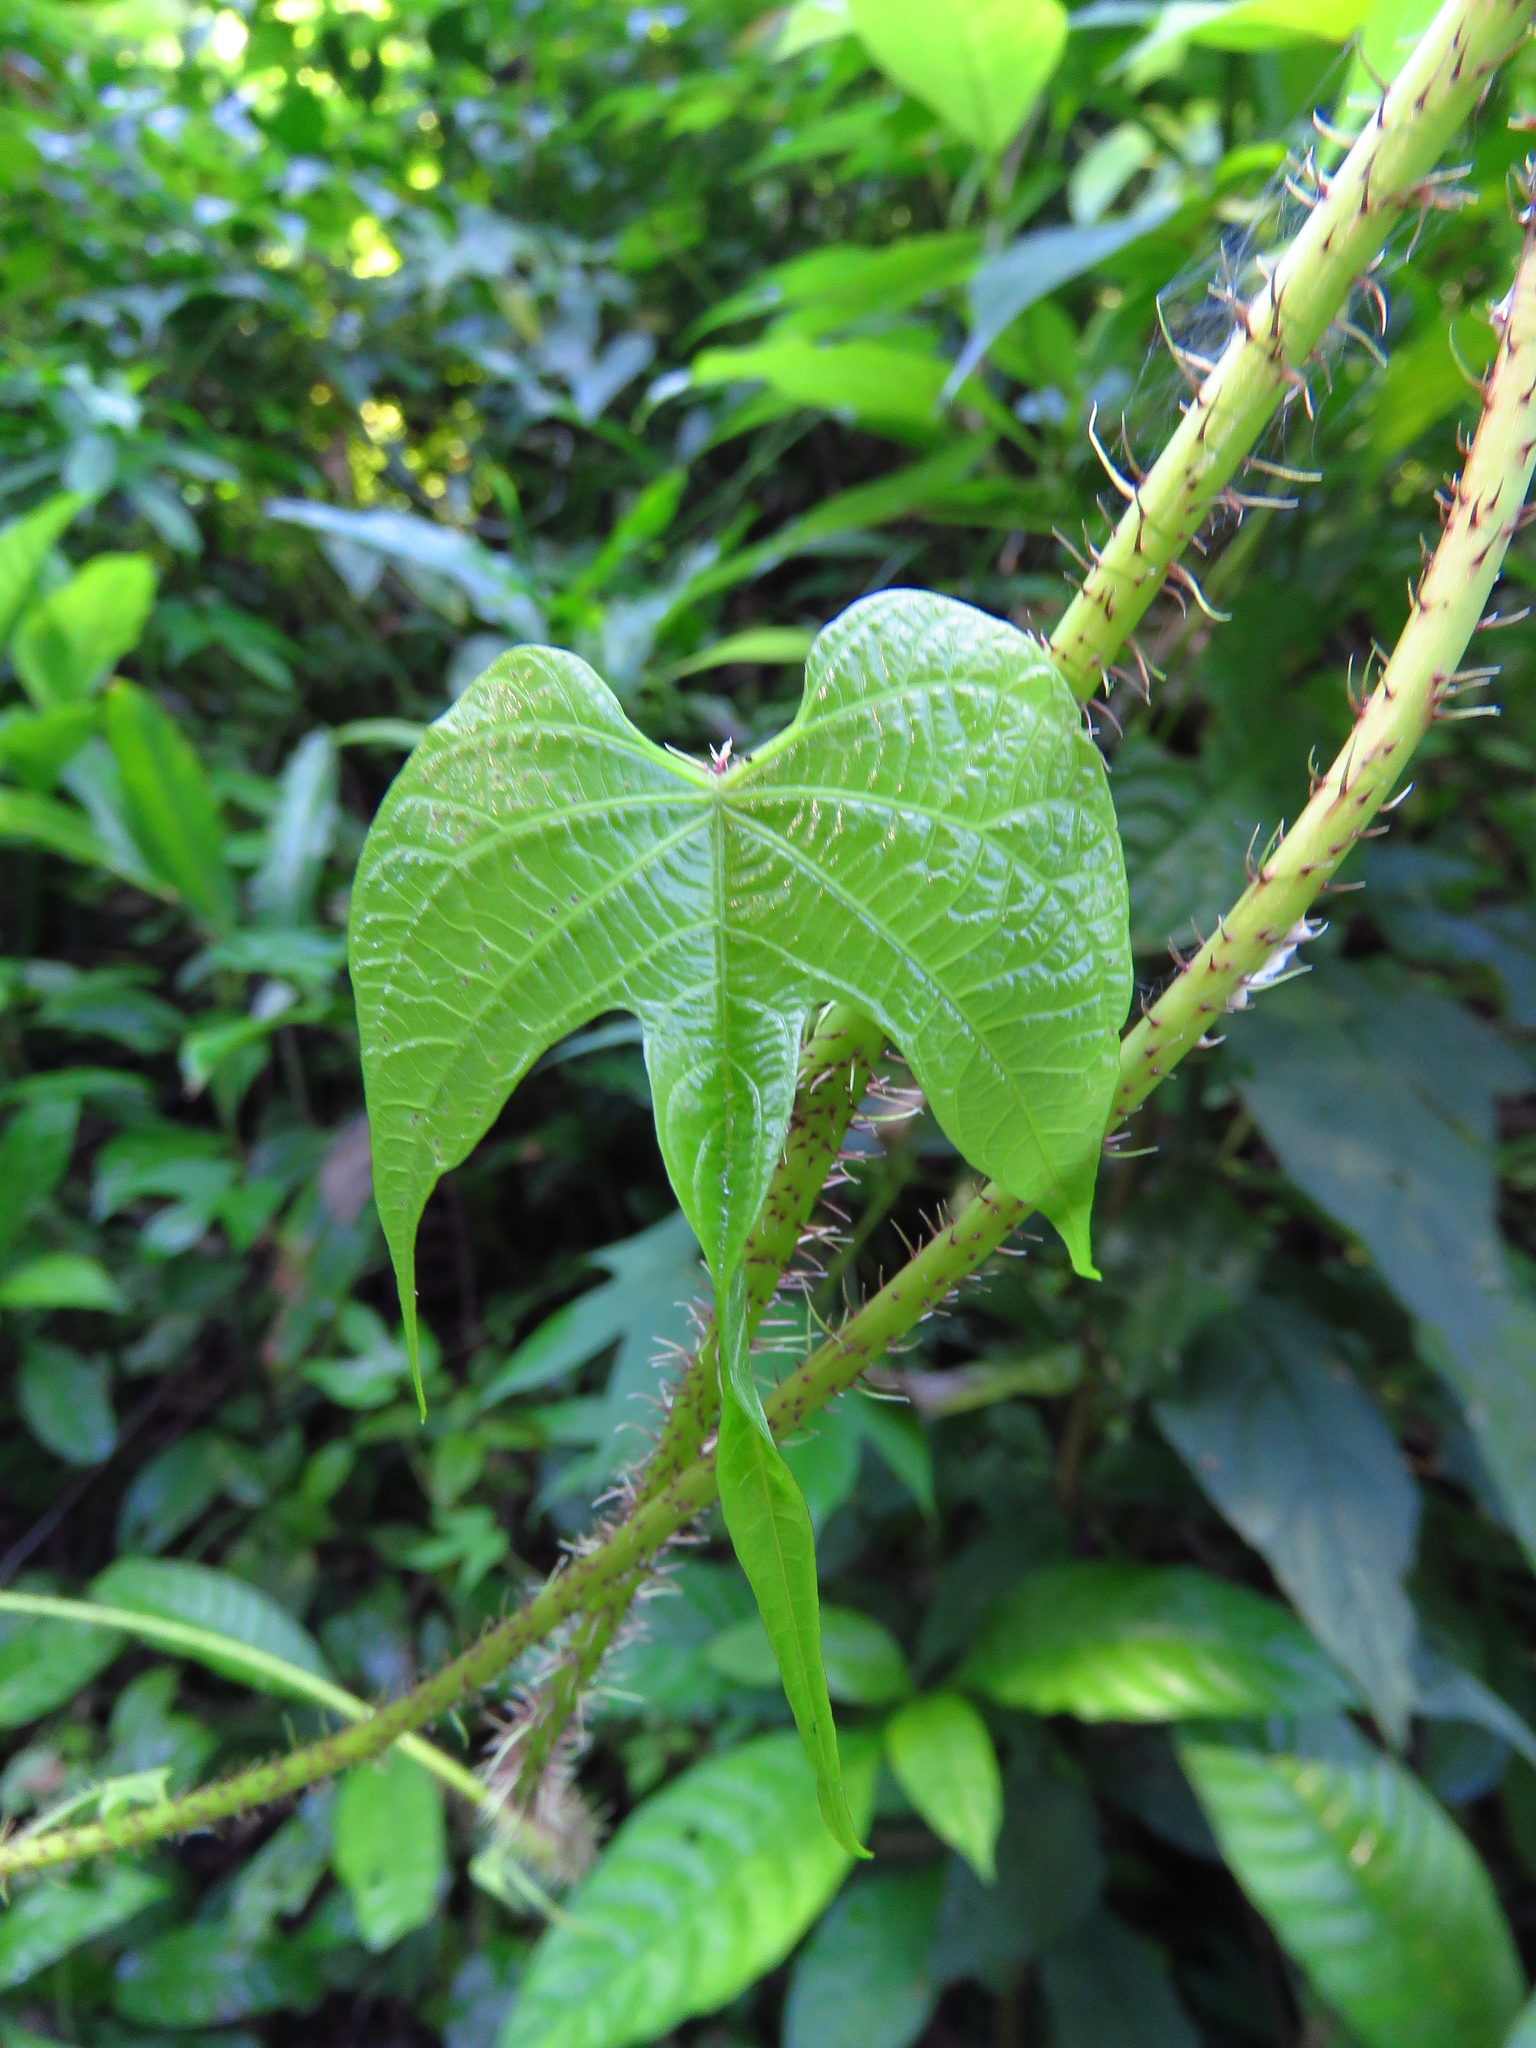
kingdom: Plantae
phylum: Tracheophyta
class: Magnoliopsida
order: Solanales
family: Convolvulaceae
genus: Ipomoea
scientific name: Ipomoea setosa
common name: Brazilian morning-glory
